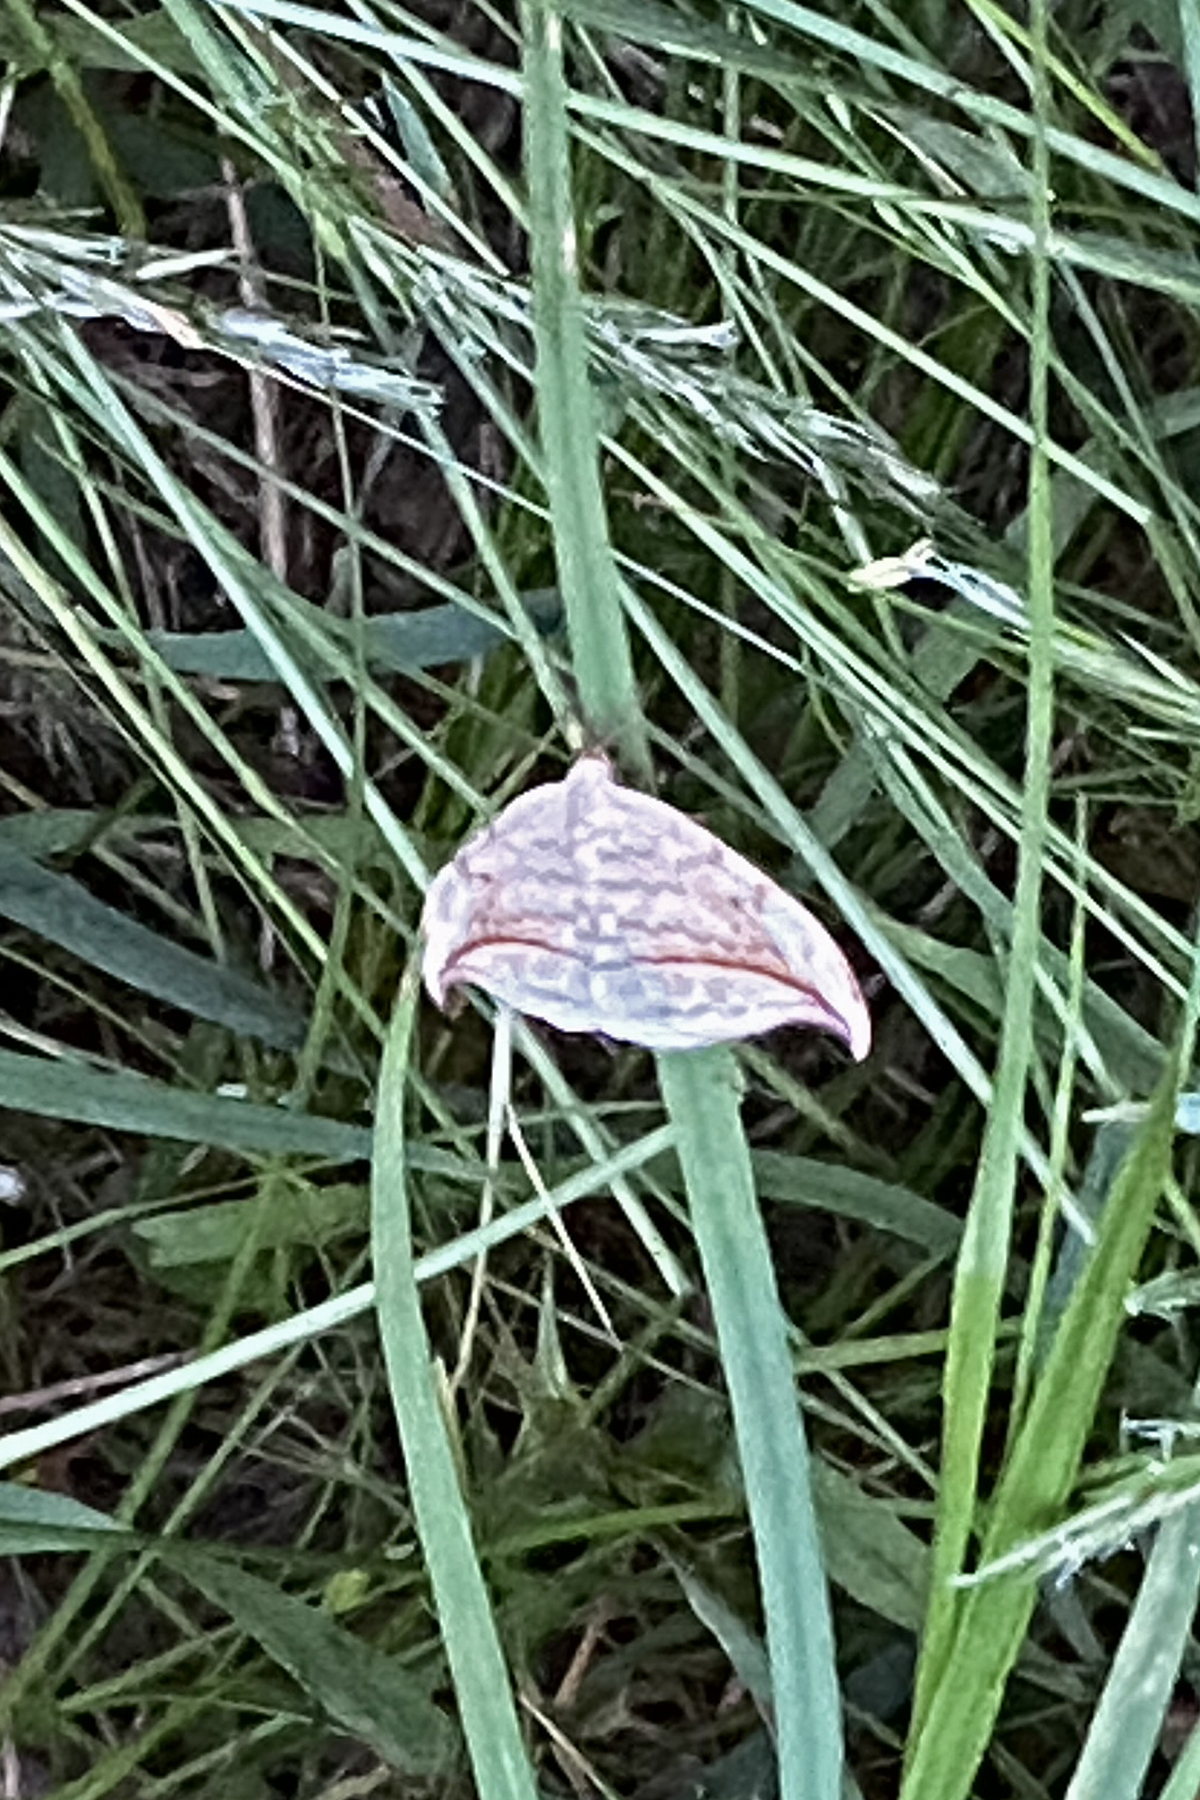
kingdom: Animalia
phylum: Arthropoda
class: Insecta
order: Lepidoptera
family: Drepanidae
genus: Drepana
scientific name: Drepana arcuata
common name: Arched hooktip moth
